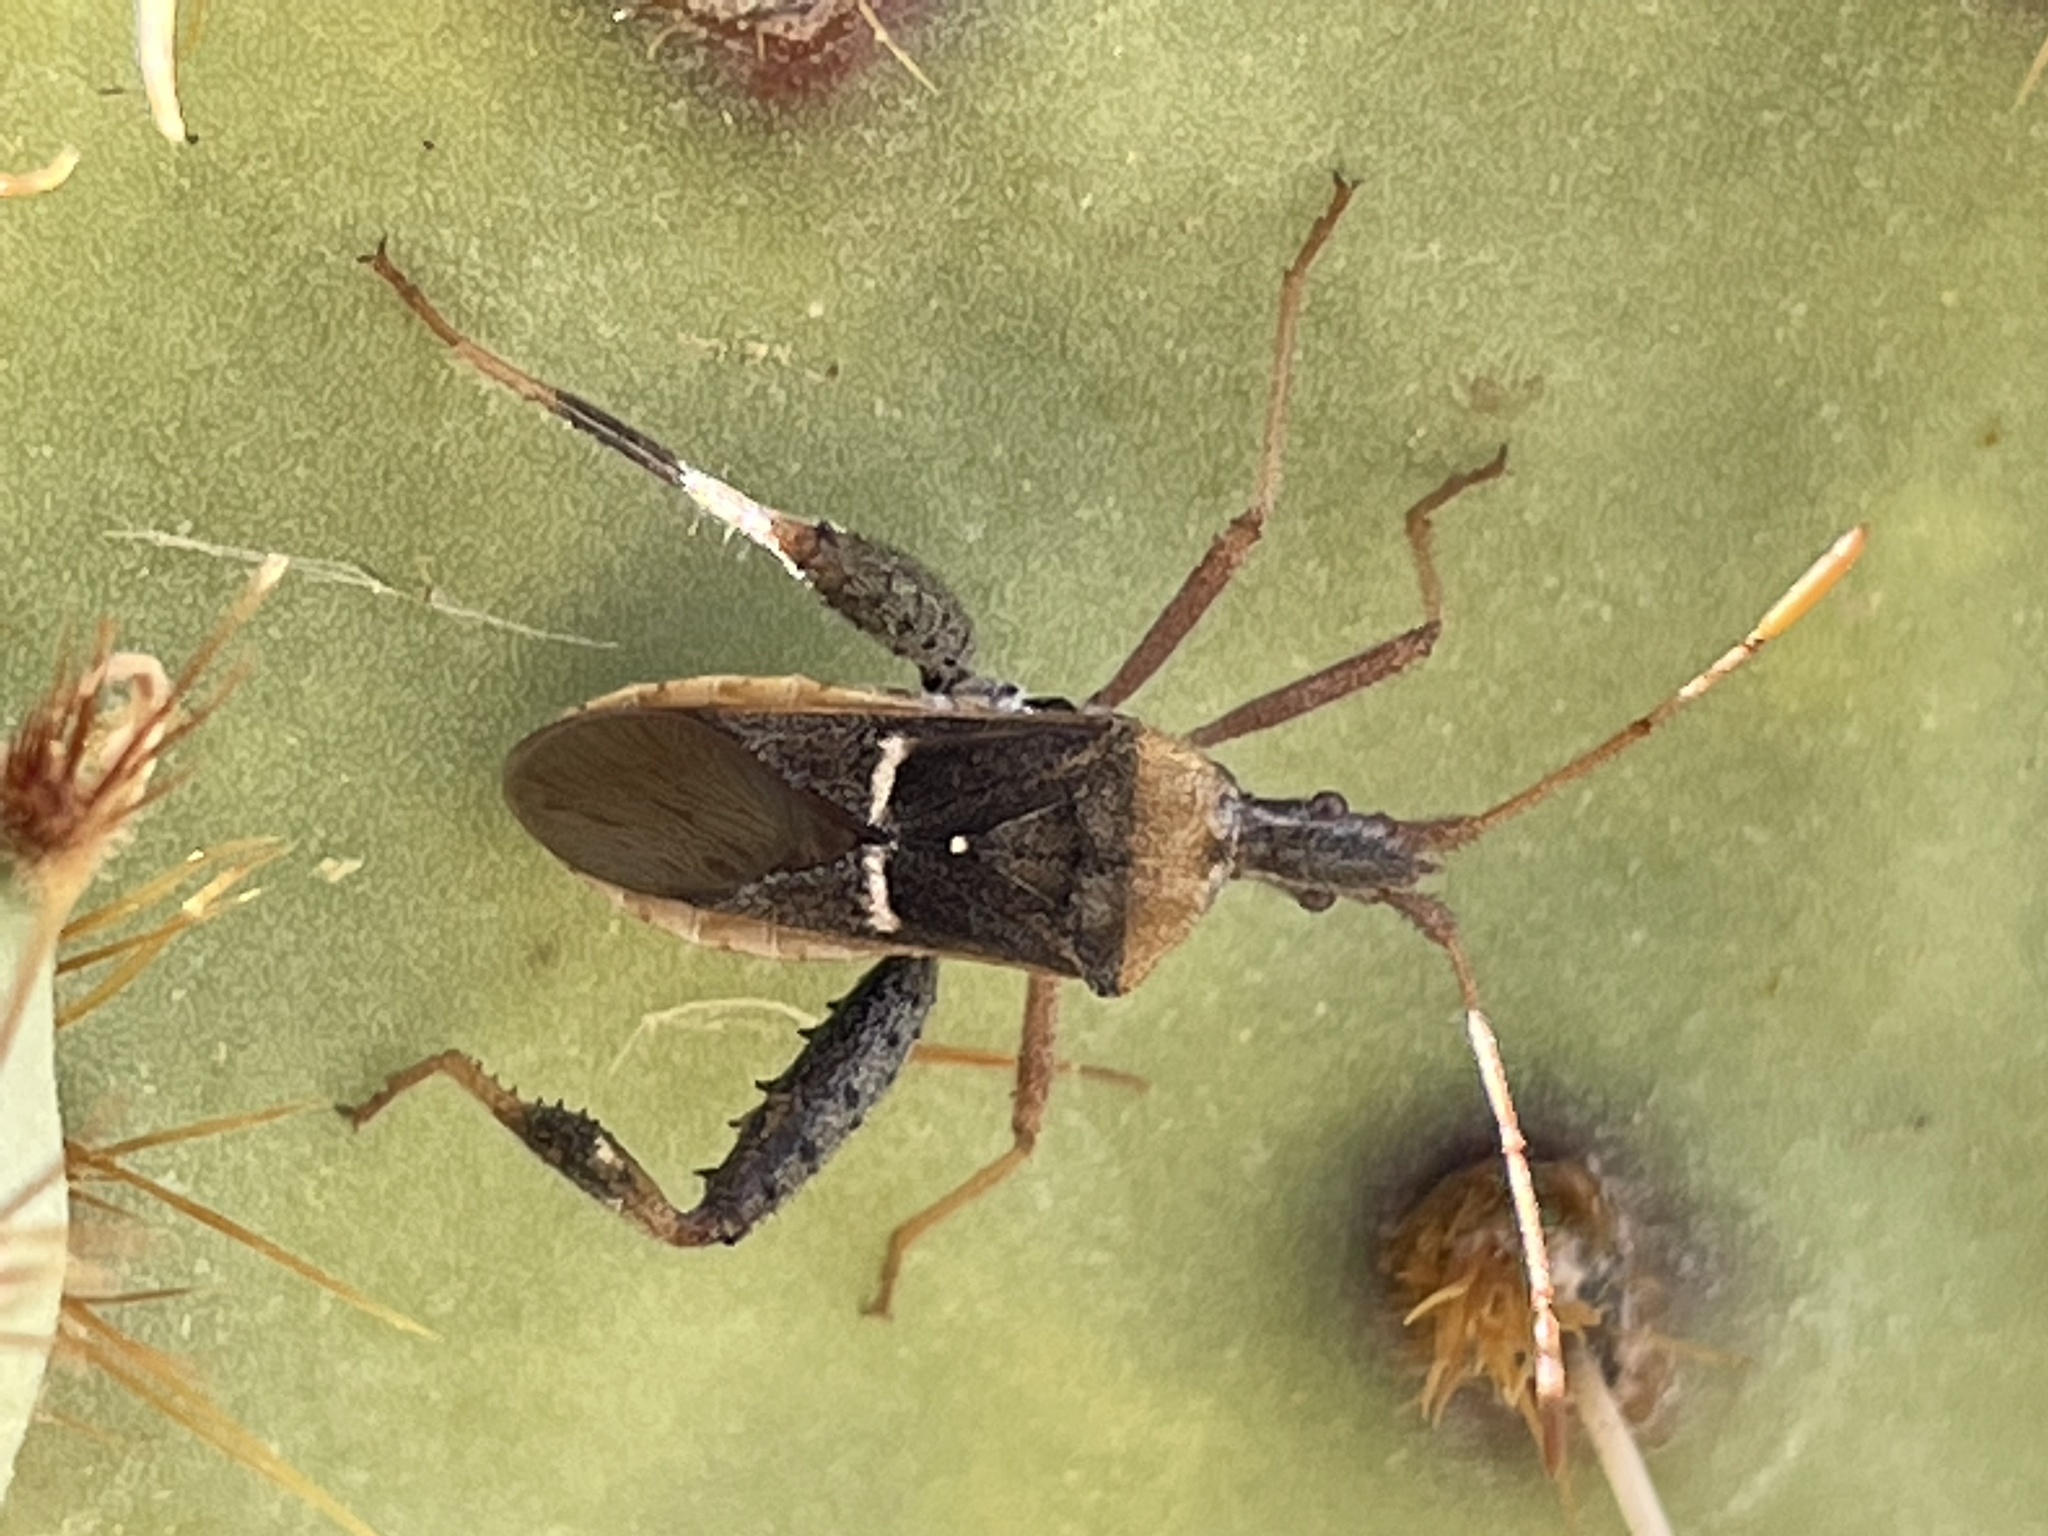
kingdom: Animalia
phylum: Arthropoda
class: Insecta
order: Hemiptera
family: Coreidae
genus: Narnia
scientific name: Narnia snowi
